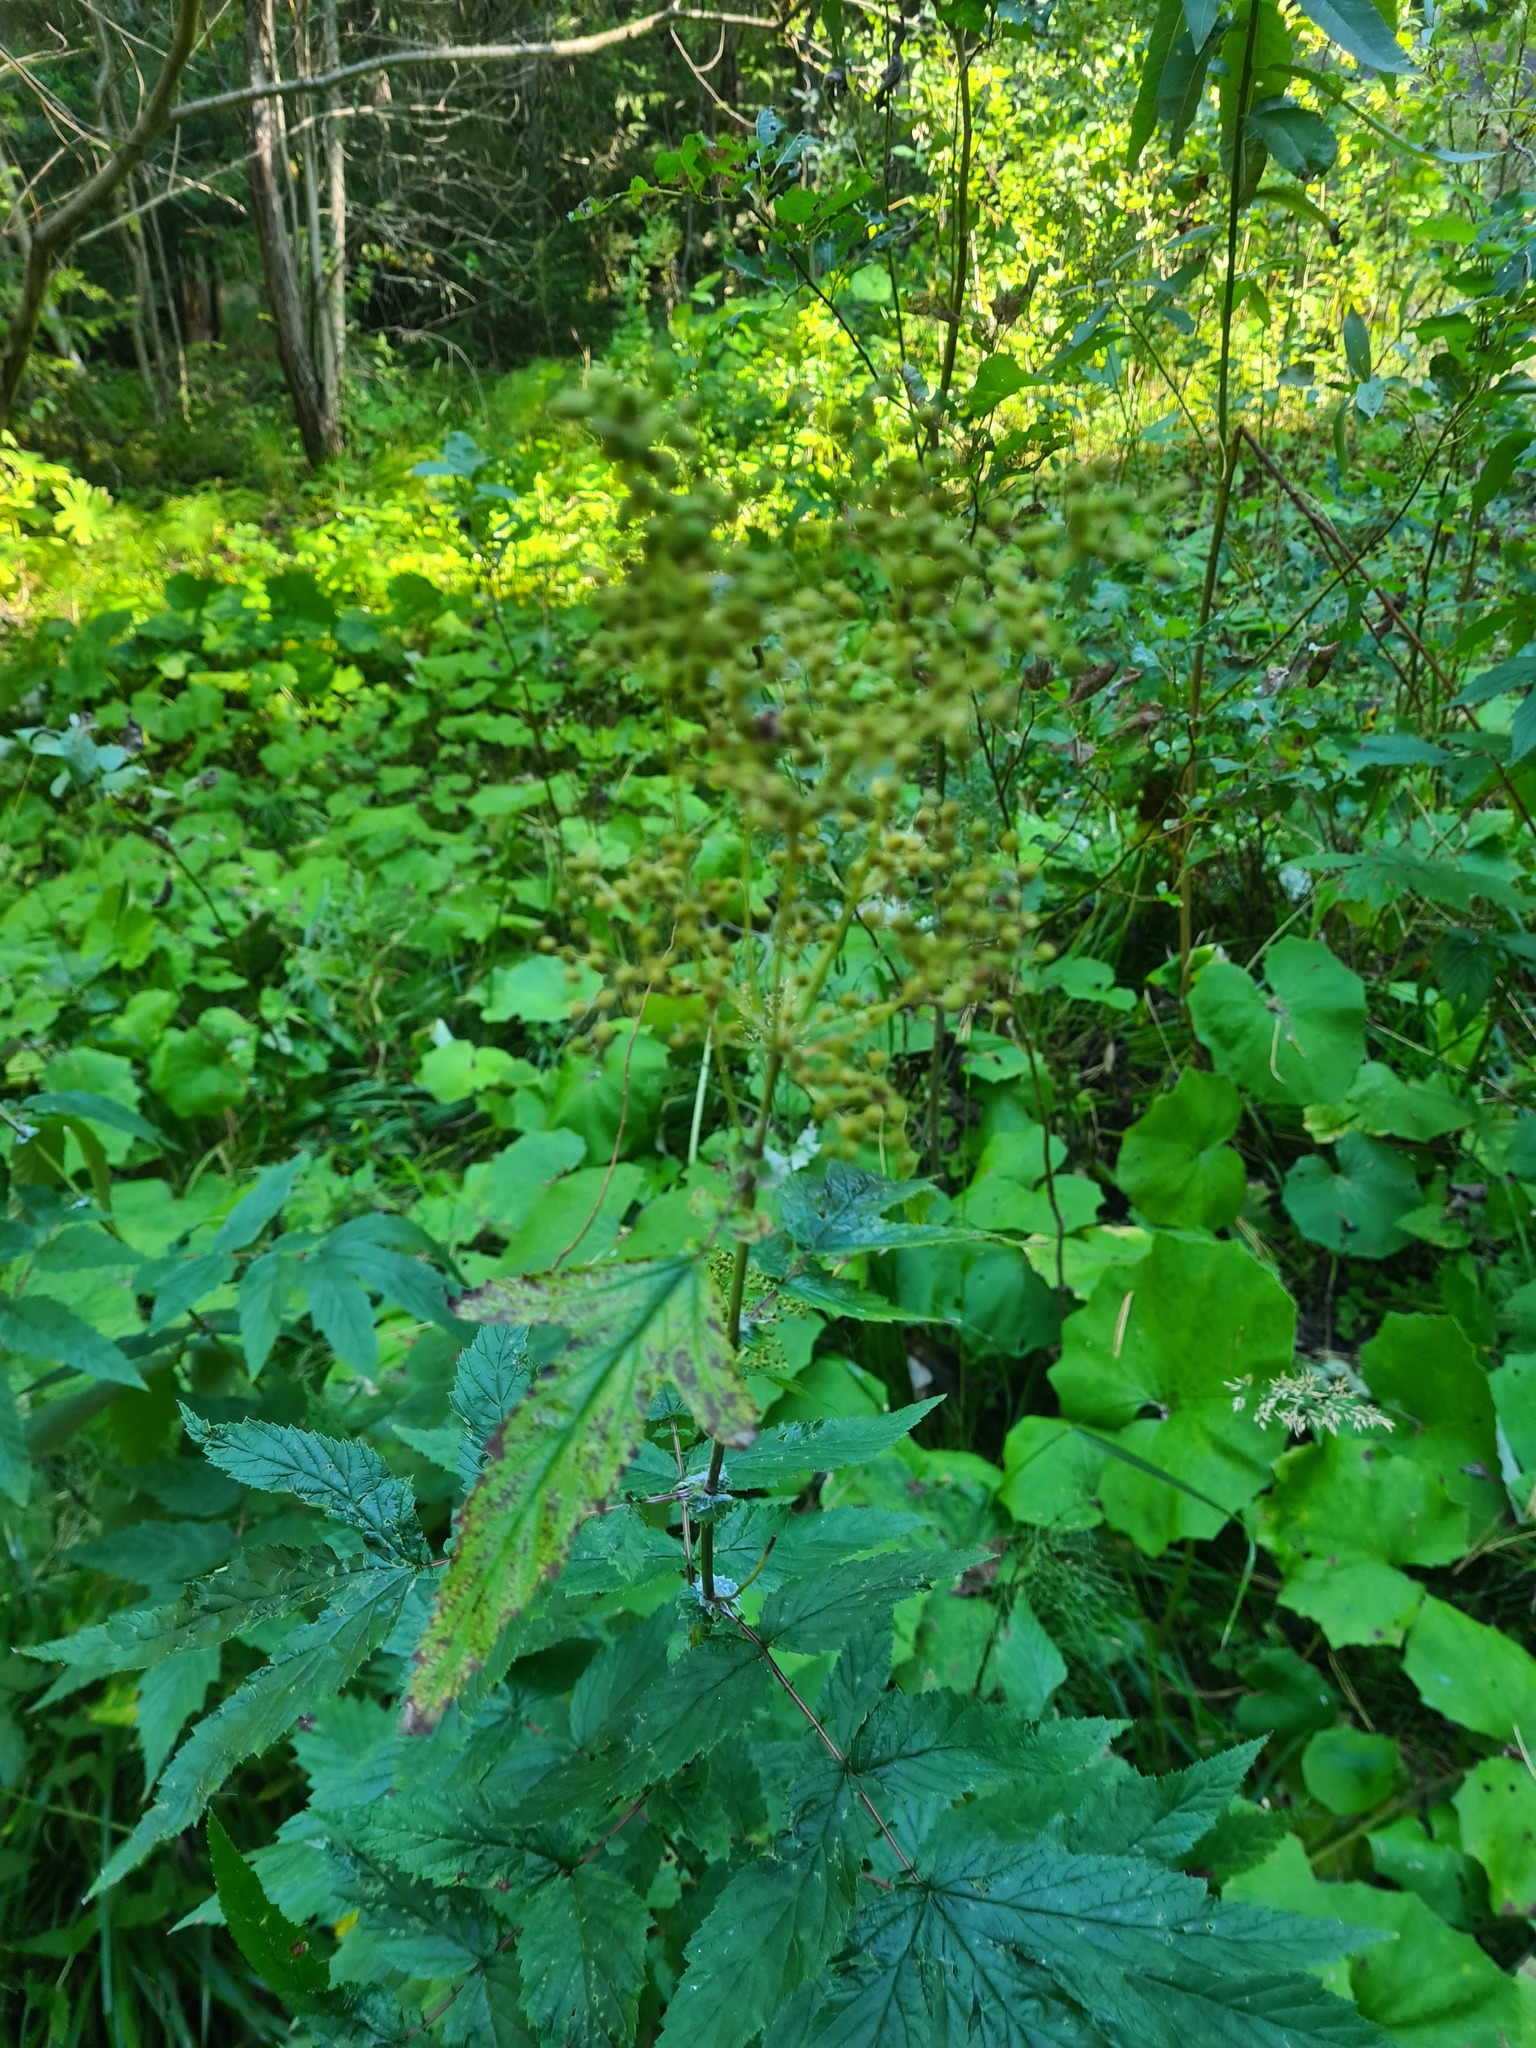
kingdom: Plantae
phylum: Tracheophyta
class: Magnoliopsida
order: Rosales
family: Rosaceae
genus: Filipendula
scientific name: Filipendula ulmaria
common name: Meadowsweet
